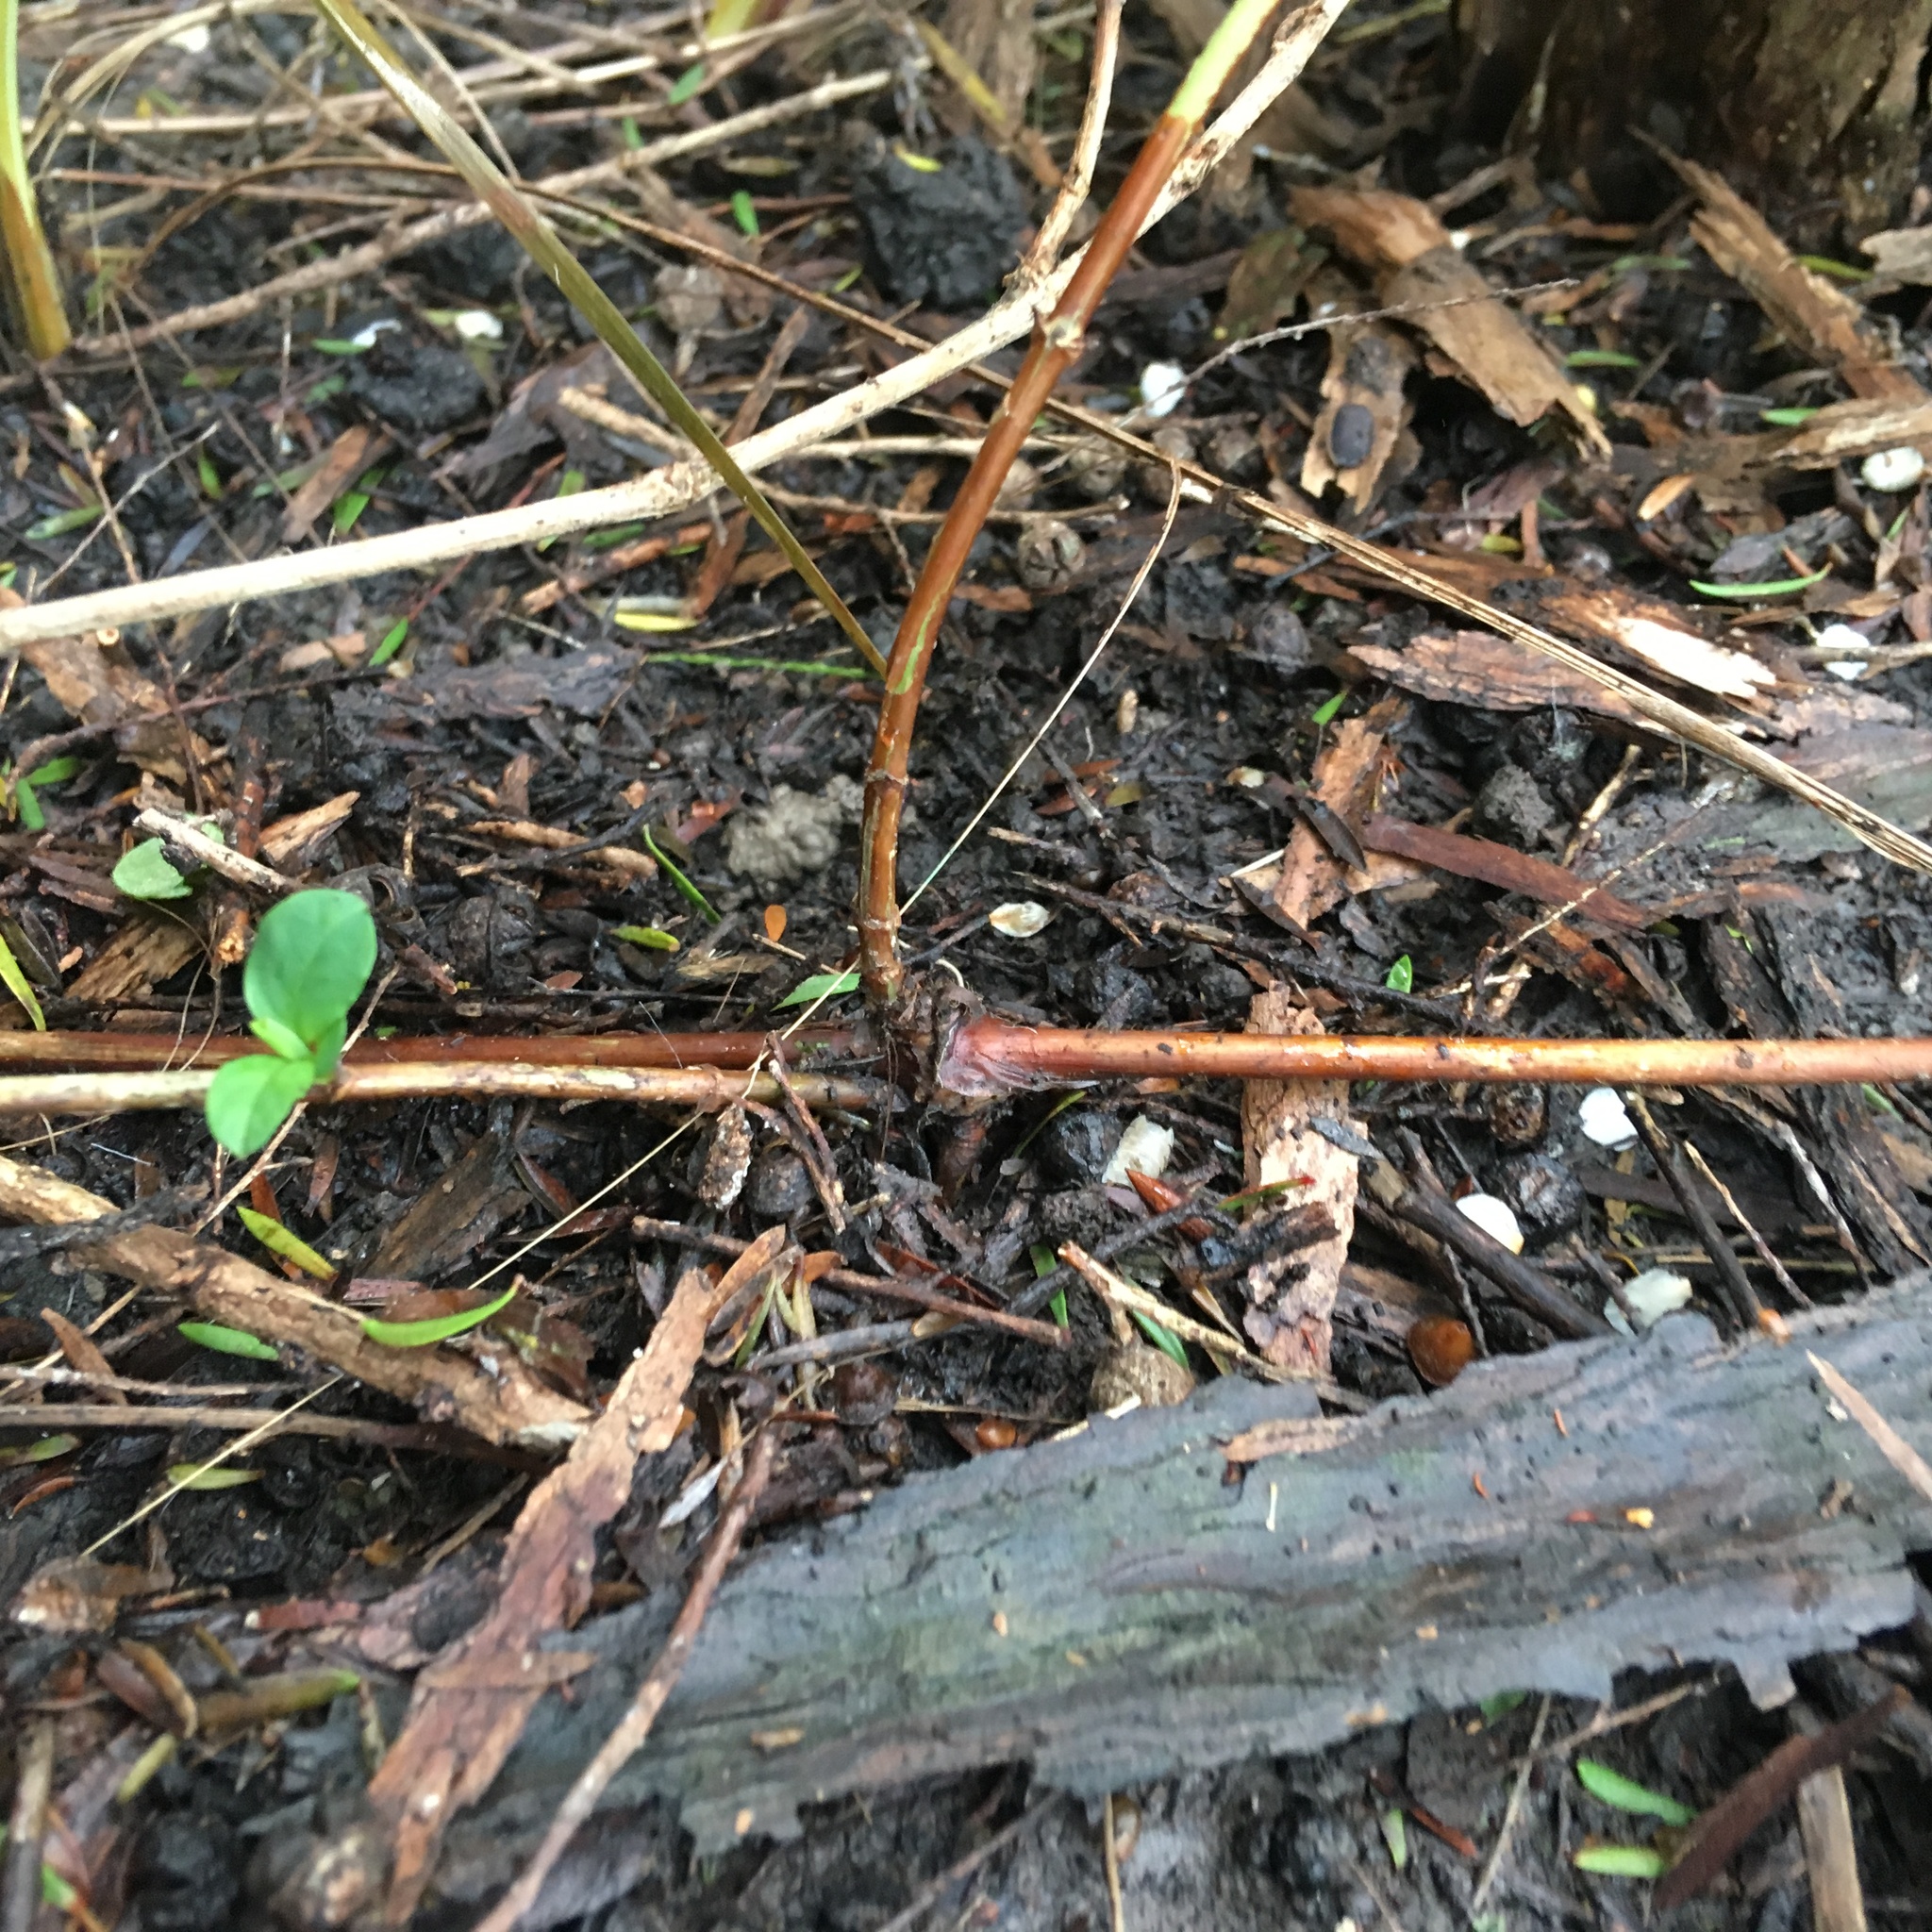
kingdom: Plantae
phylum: Tracheophyta
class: Magnoliopsida
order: Dipsacales
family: Caprifoliaceae
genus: Lonicera
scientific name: Lonicera japonica
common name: Japanese honeysuckle
